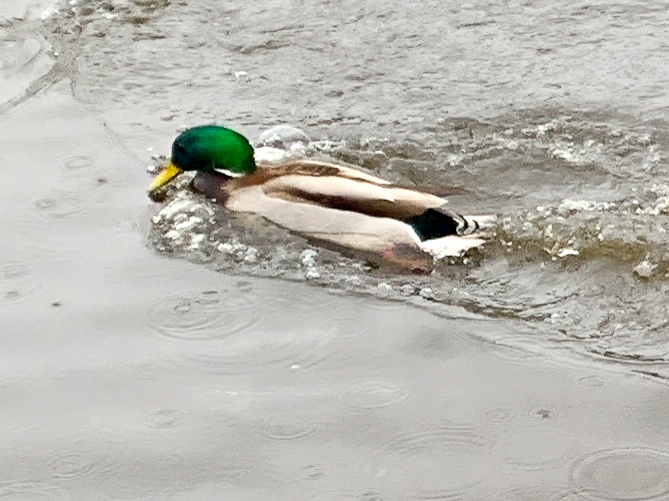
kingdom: Animalia
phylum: Chordata
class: Aves
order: Anseriformes
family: Anatidae
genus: Anas
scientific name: Anas platyrhynchos
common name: Mallard
